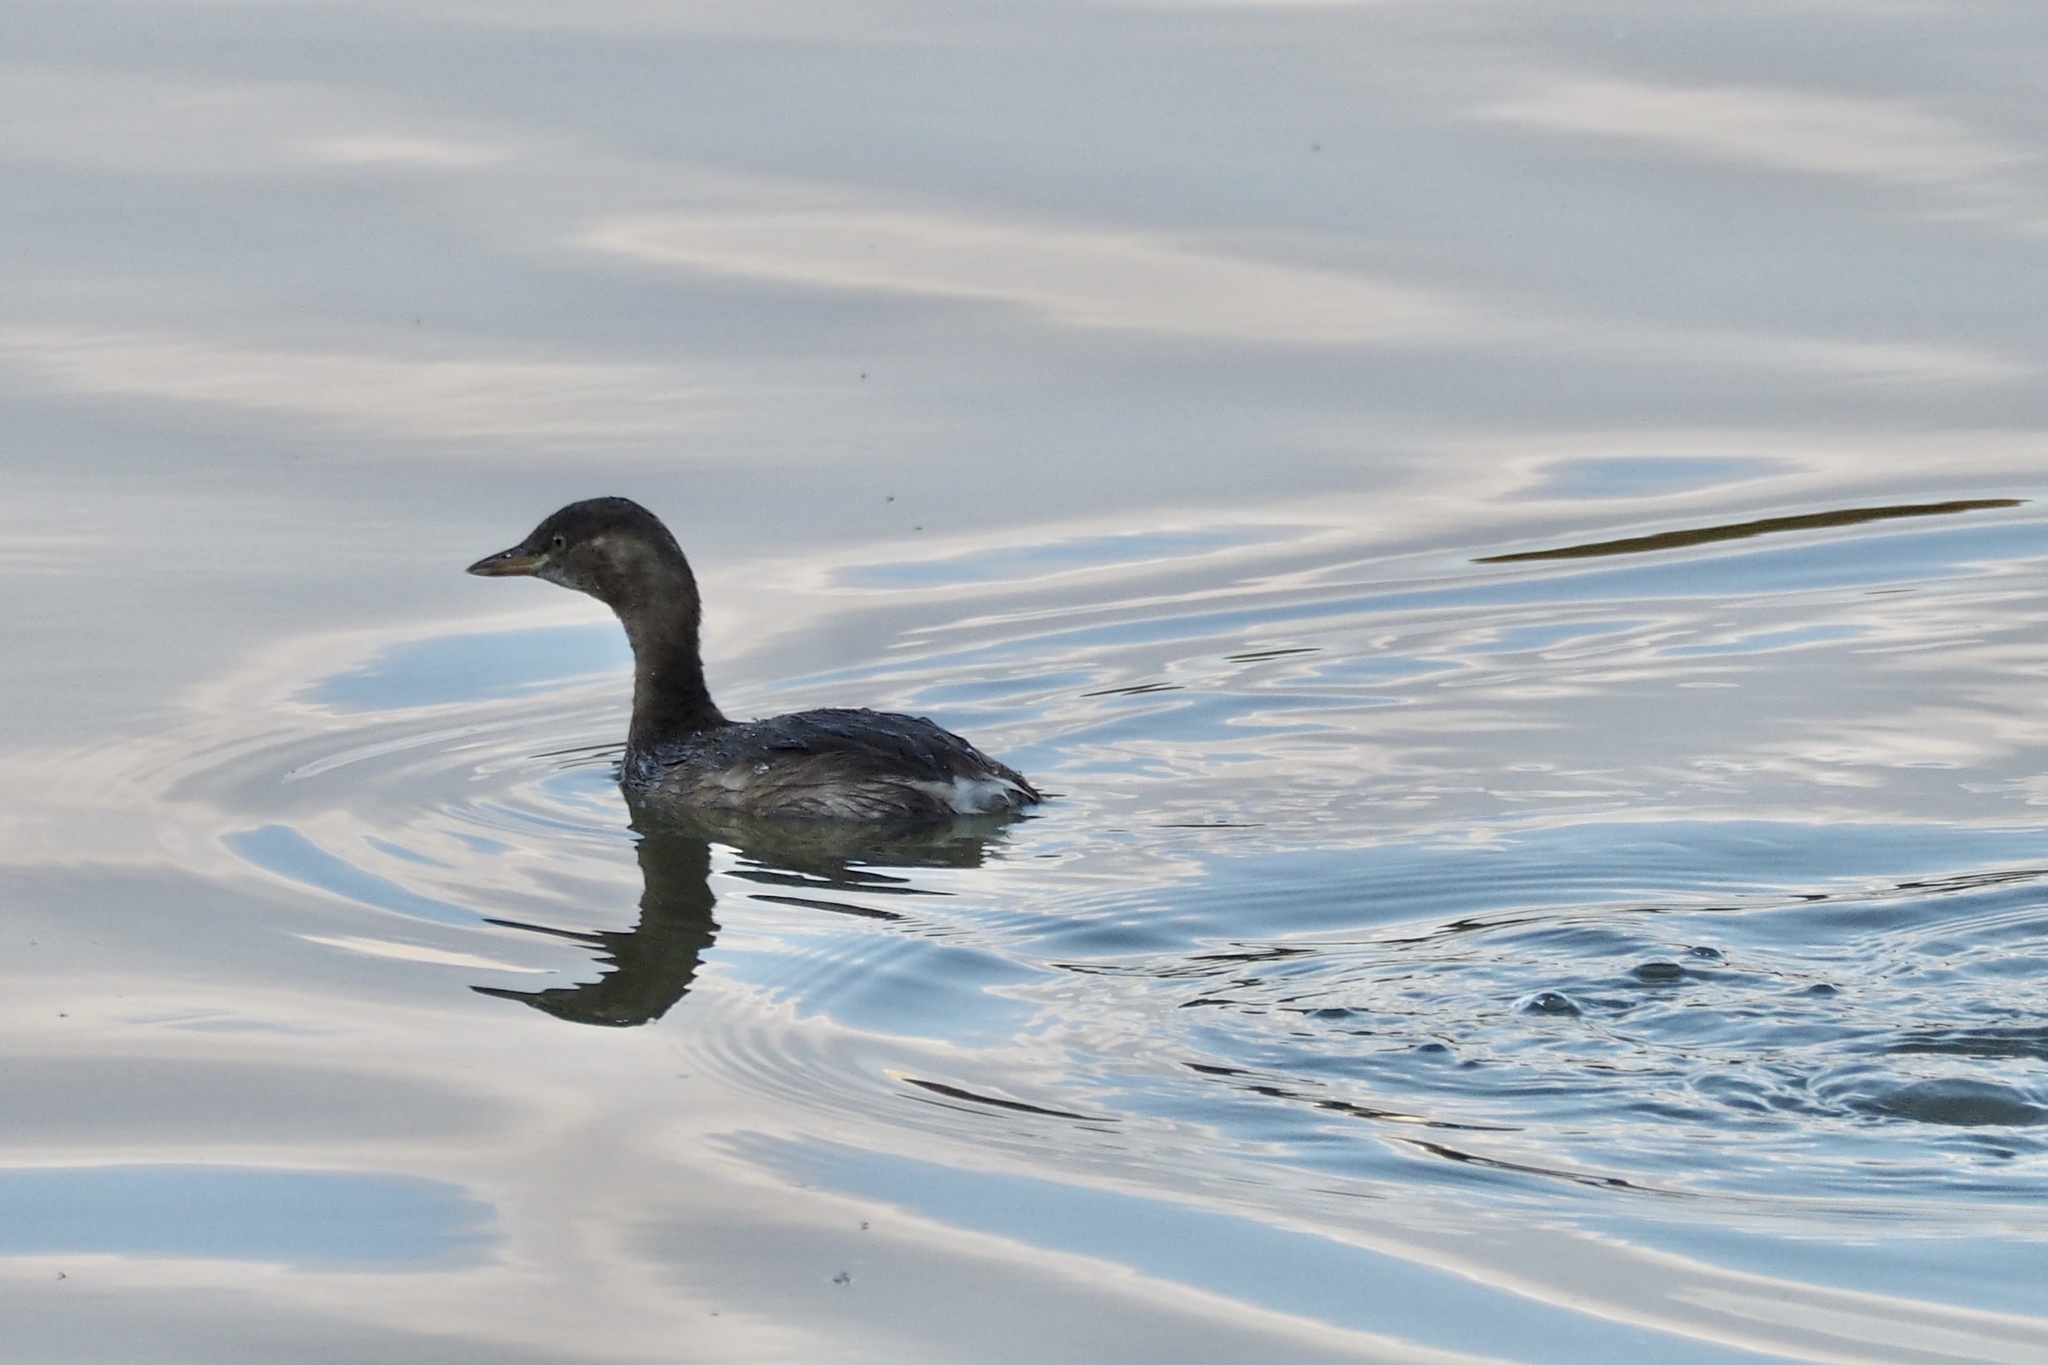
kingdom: Animalia
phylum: Chordata
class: Aves
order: Podicipediformes
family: Podicipedidae
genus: Tachybaptus
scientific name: Tachybaptus ruficollis
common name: Little grebe
